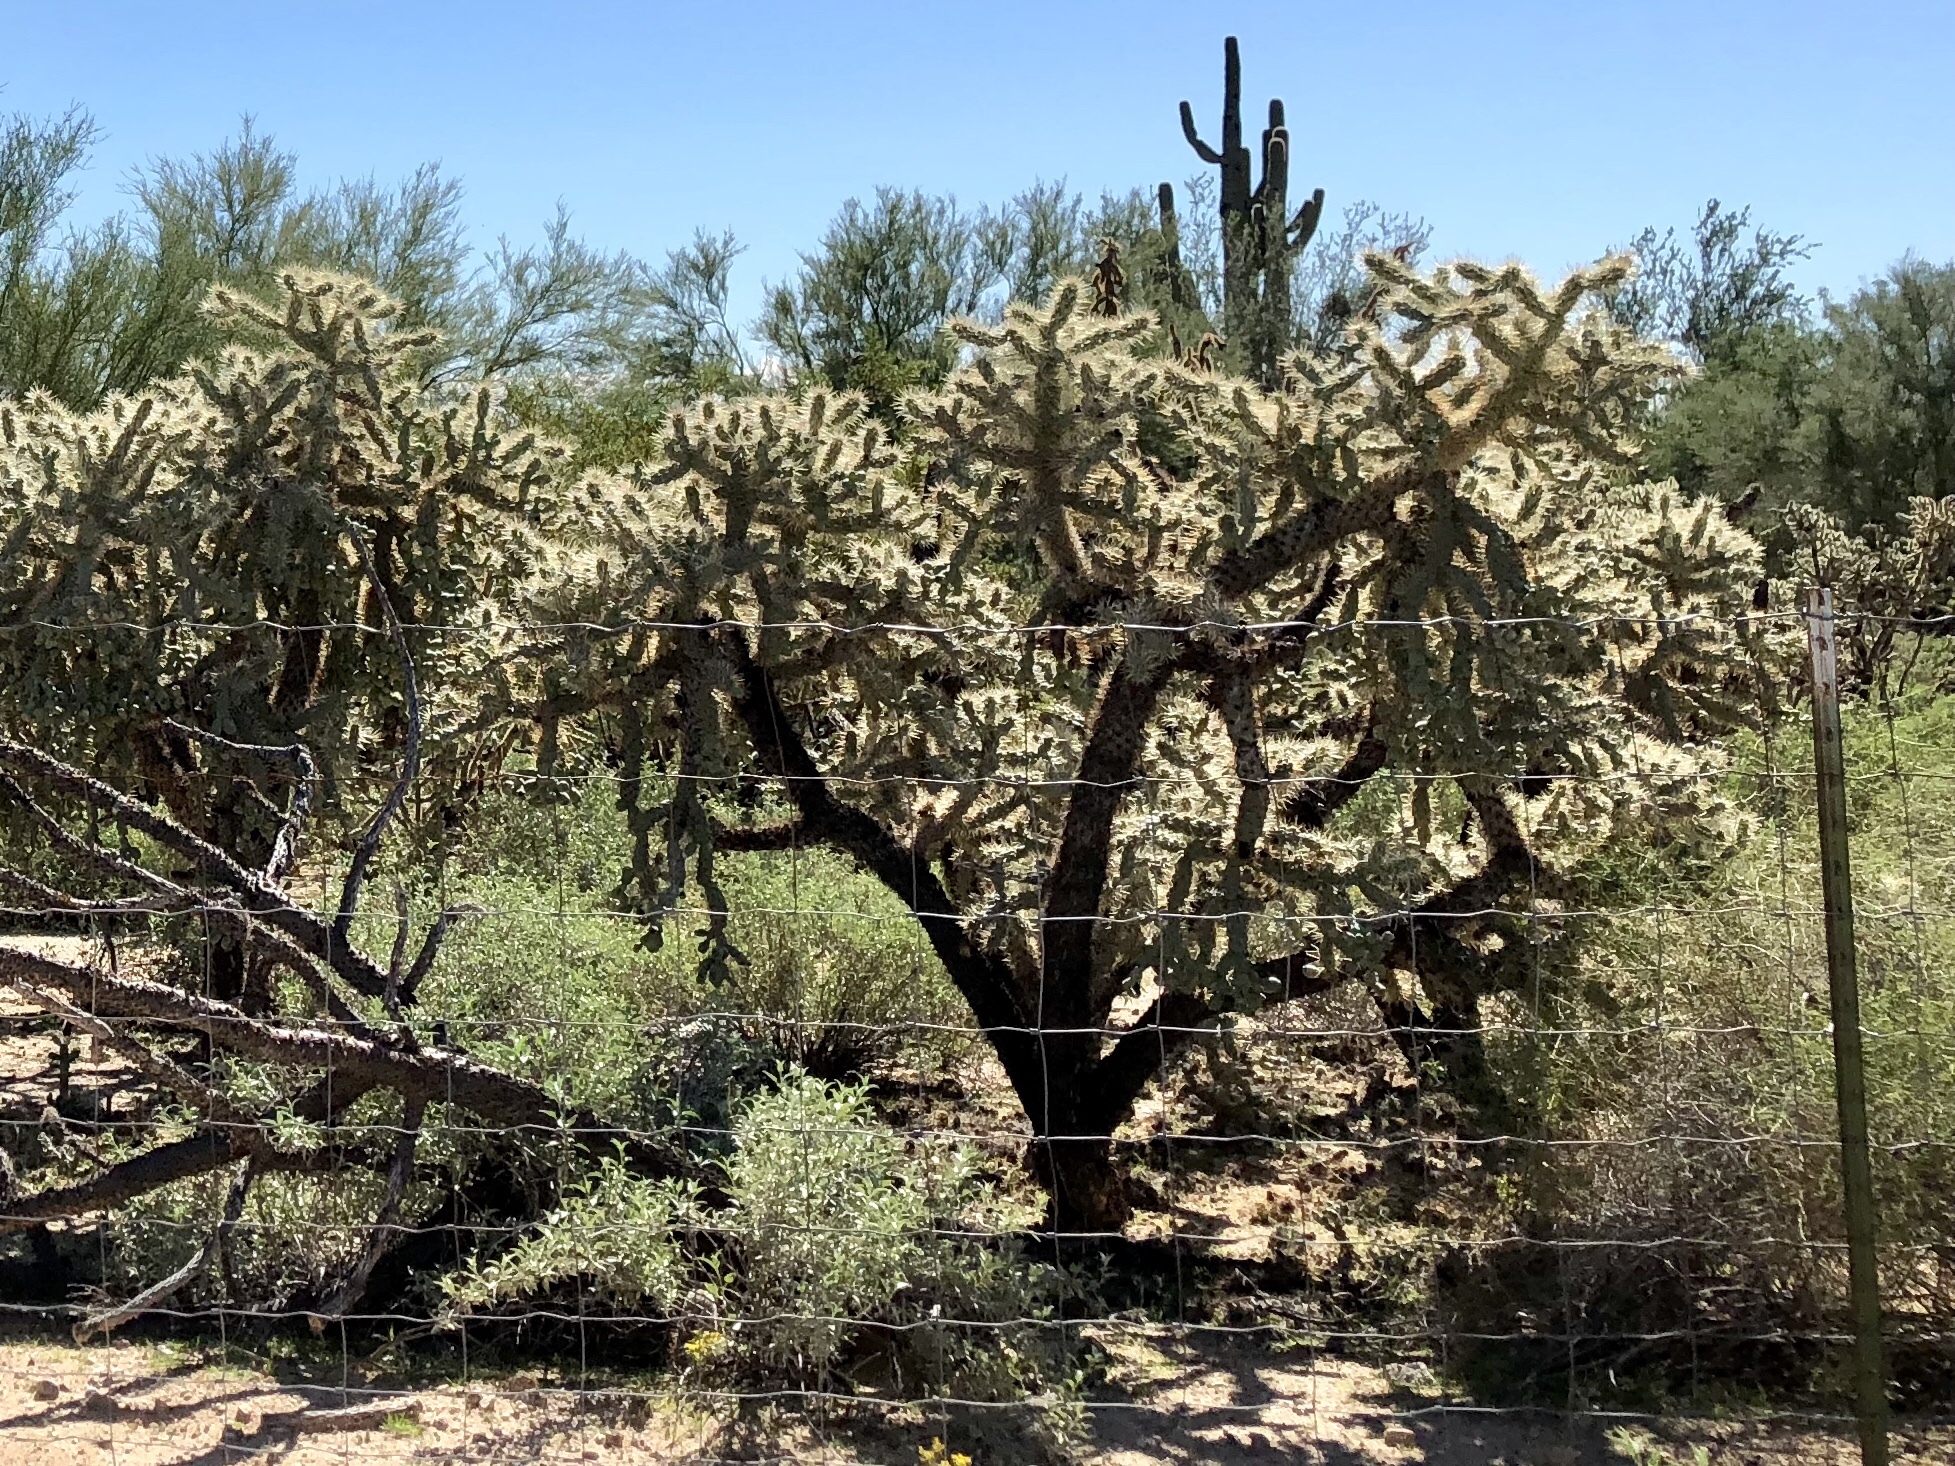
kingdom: Plantae
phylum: Tracheophyta
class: Magnoliopsida
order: Caryophyllales
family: Cactaceae
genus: Cylindropuntia
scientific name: Cylindropuntia fulgida
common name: Jumping cholla
